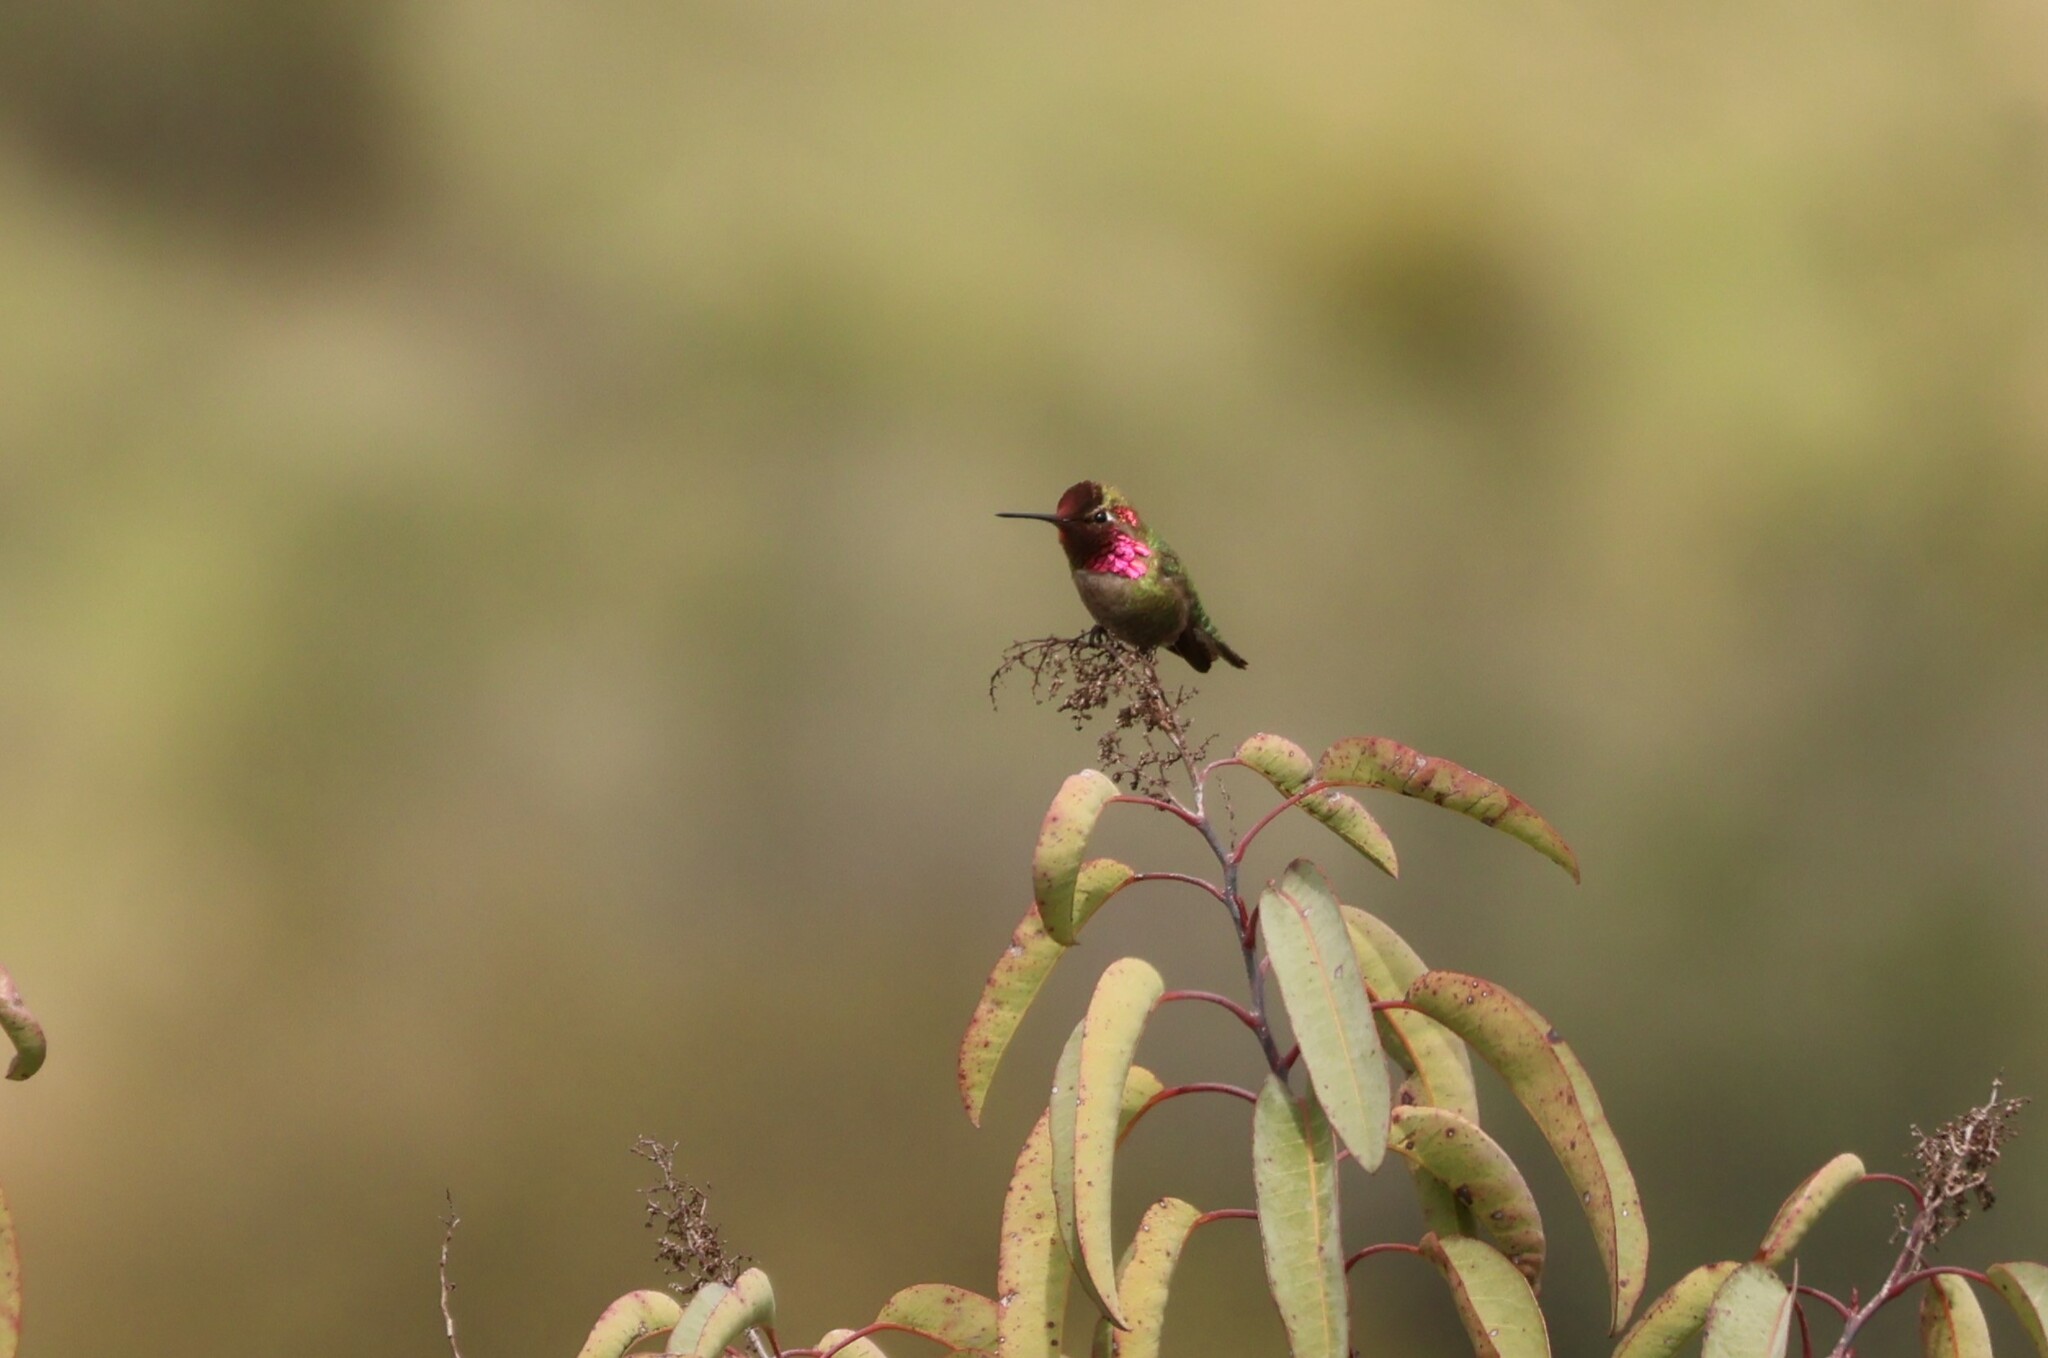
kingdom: Animalia
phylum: Chordata
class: Aves
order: Apodiformes
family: Trochilidae
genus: Calypte
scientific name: Calypte anna
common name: Anna's hummingbird
